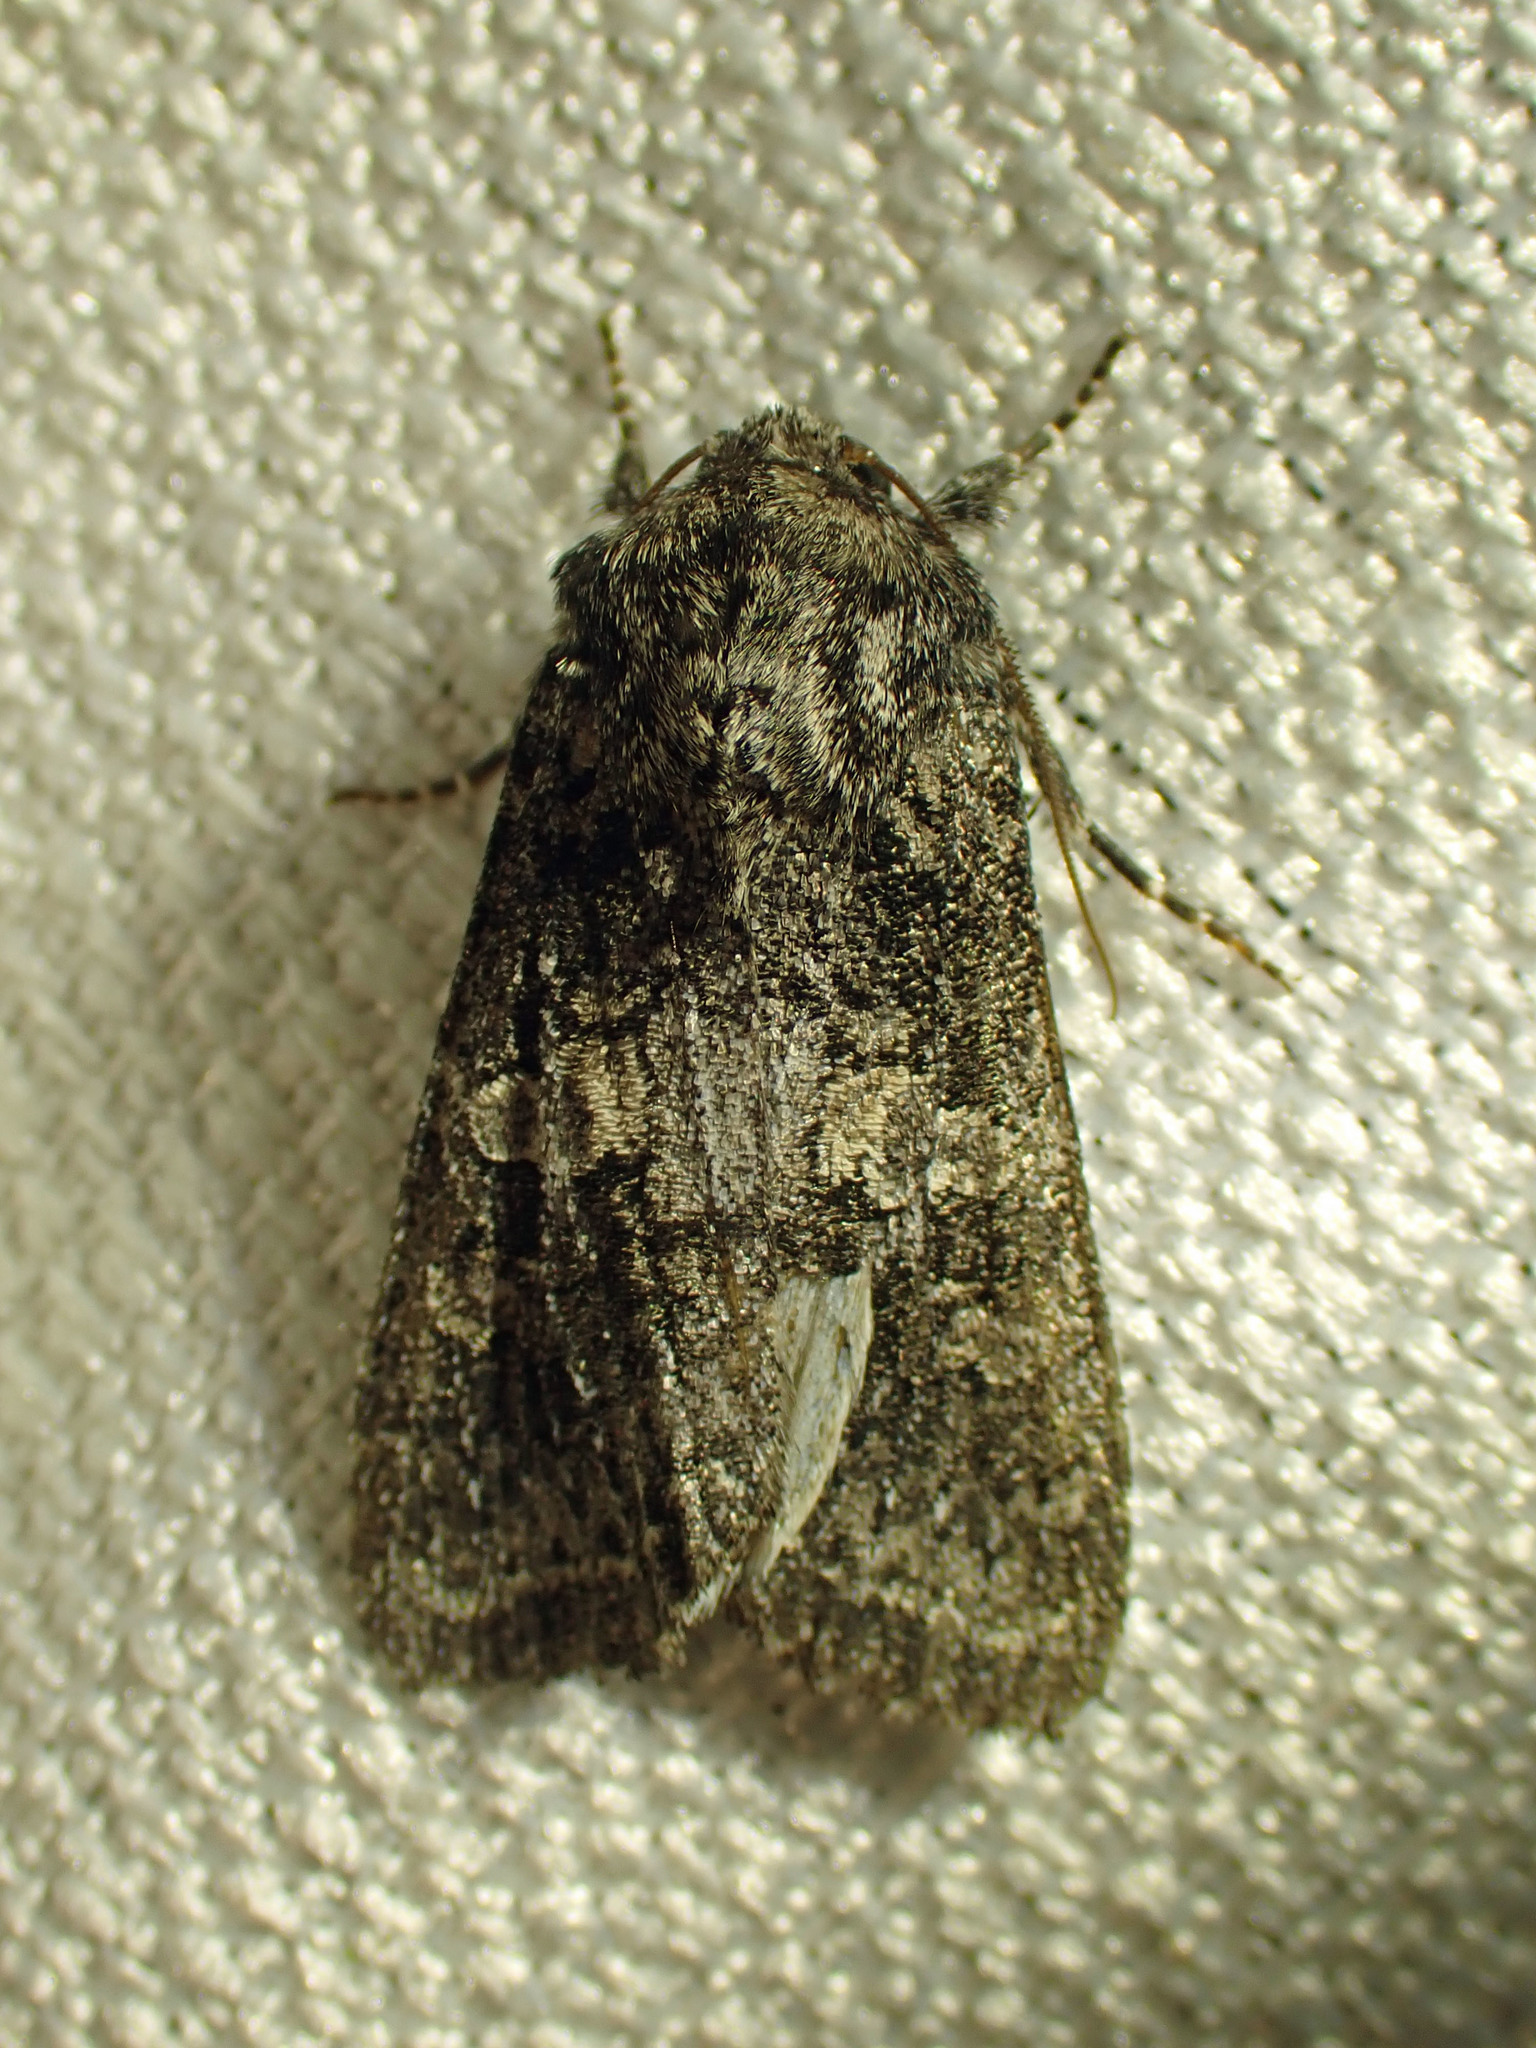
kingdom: Animalia
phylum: Arthropoda
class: Insecta
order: Lepidoptera
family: Noctuidae
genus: Egira
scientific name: Egira dolosa
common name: Lined black aspen cat.
